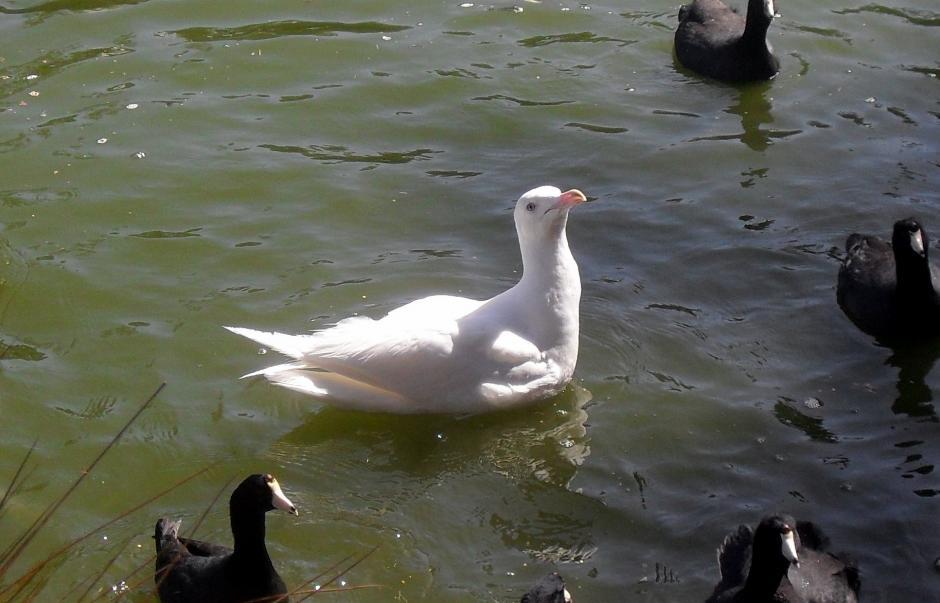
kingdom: Animalia
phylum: Chordata
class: Aves
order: Charadriiformes
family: Laridae
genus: Larus
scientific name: Larus occidentalis
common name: Western gull
